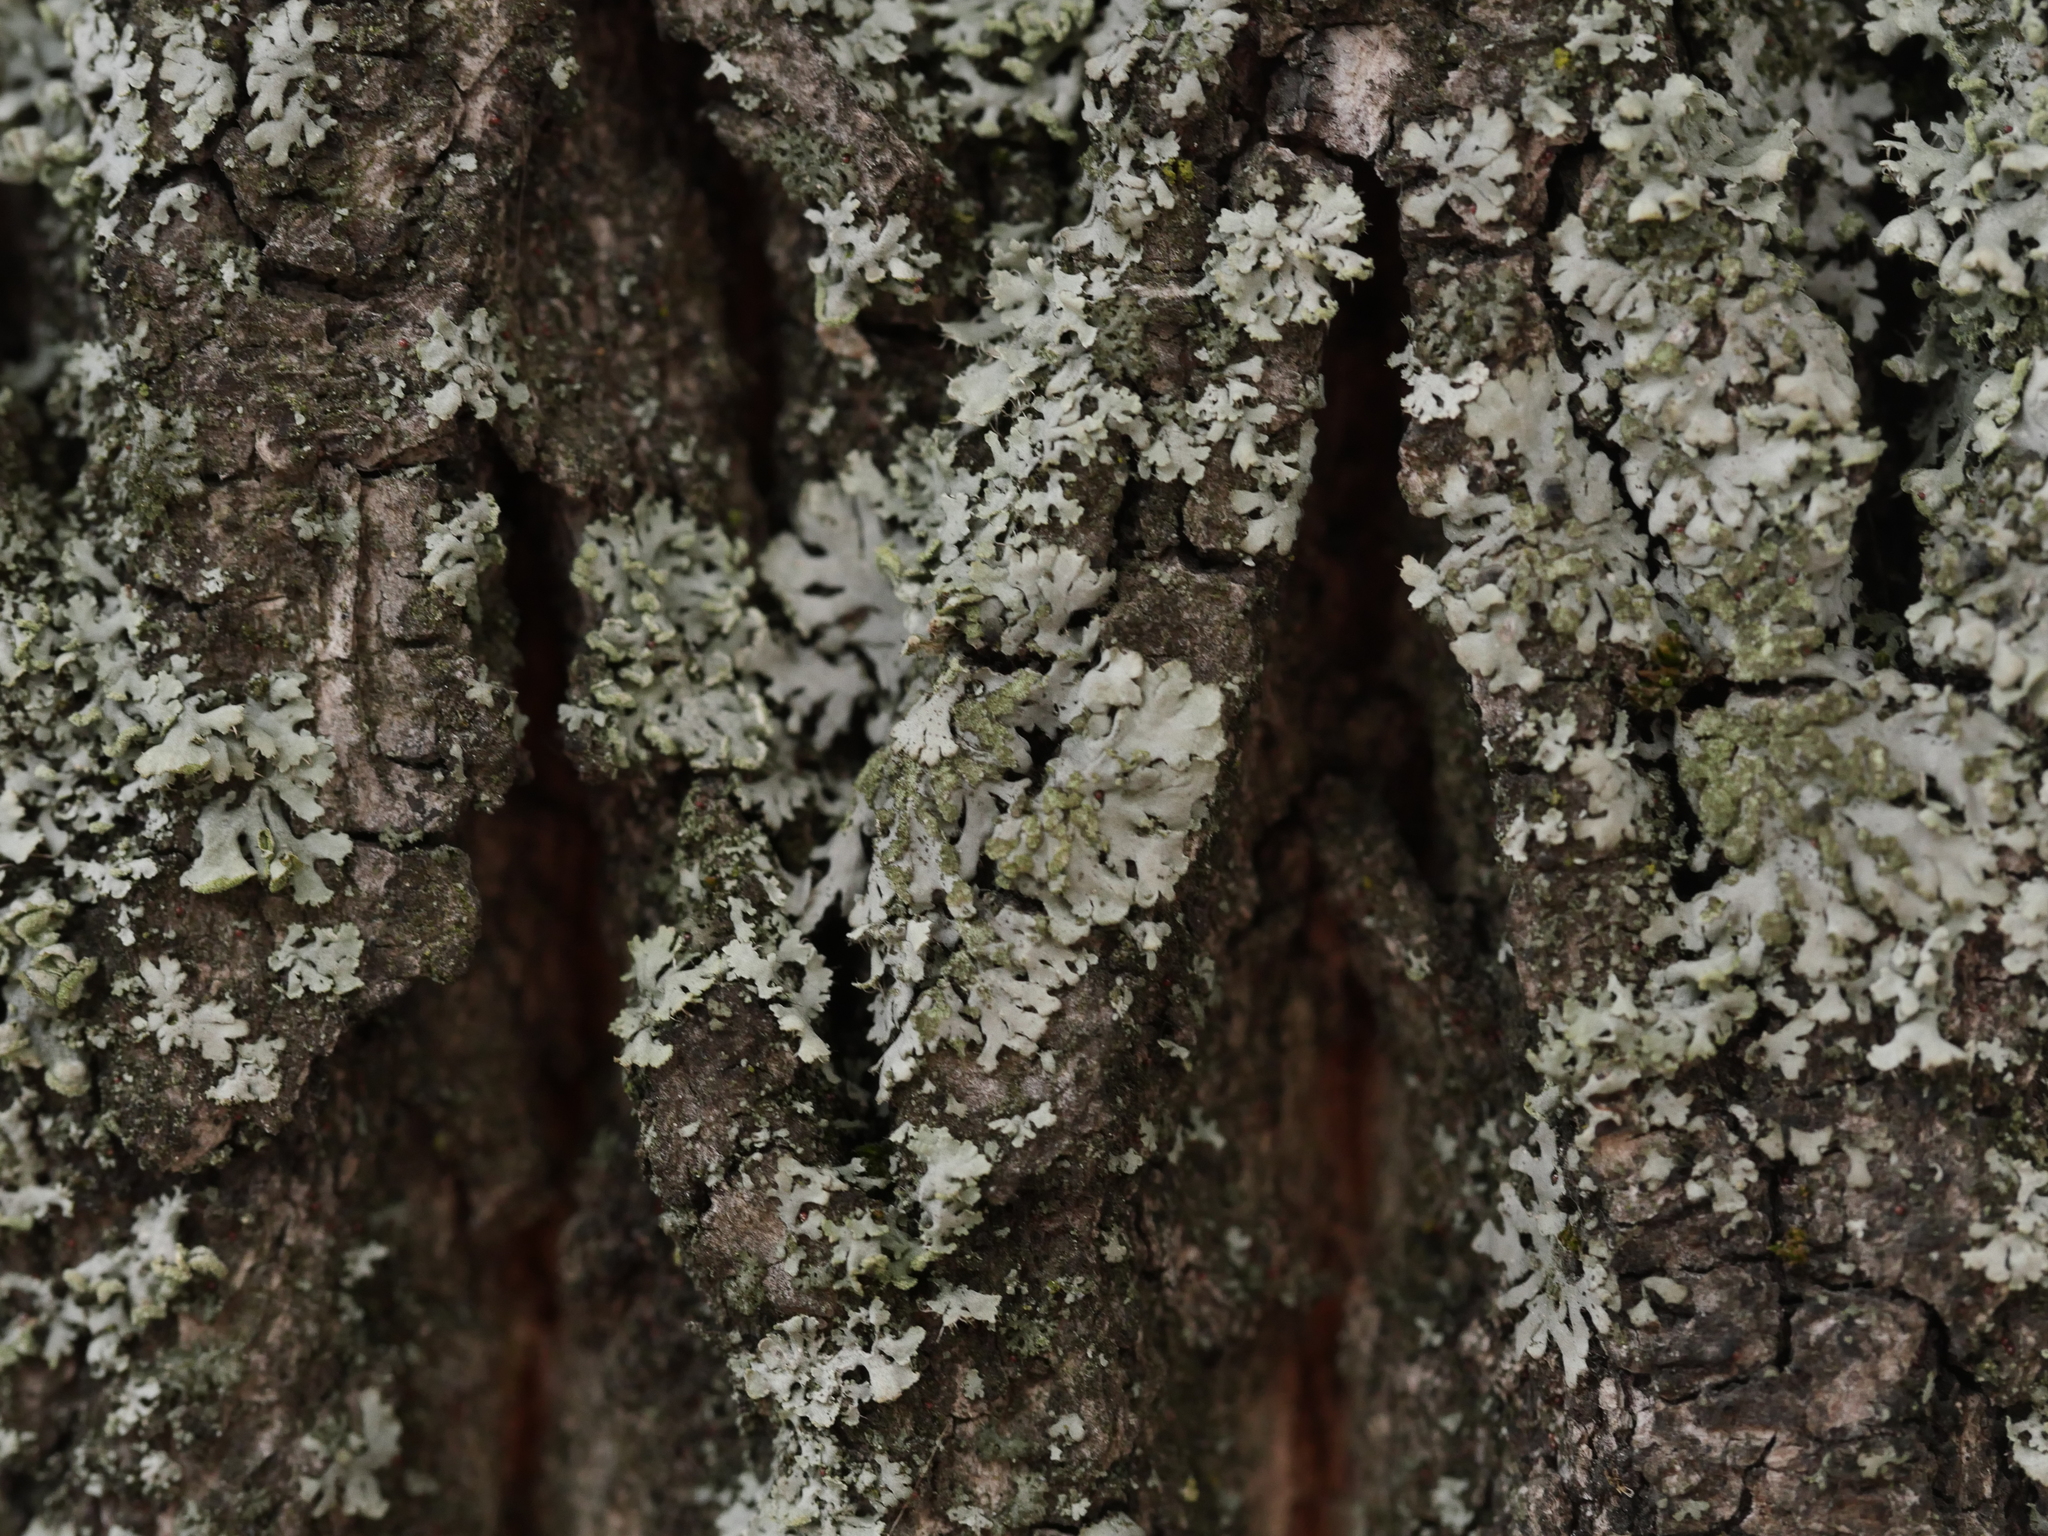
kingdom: Fungi
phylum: Ascomycota
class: Lecanoromycetes
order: Caliciales
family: Physciaceae
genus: Phaeophyscia
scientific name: Phaeophyscia orbicularis
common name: Mealy shadow lichen
